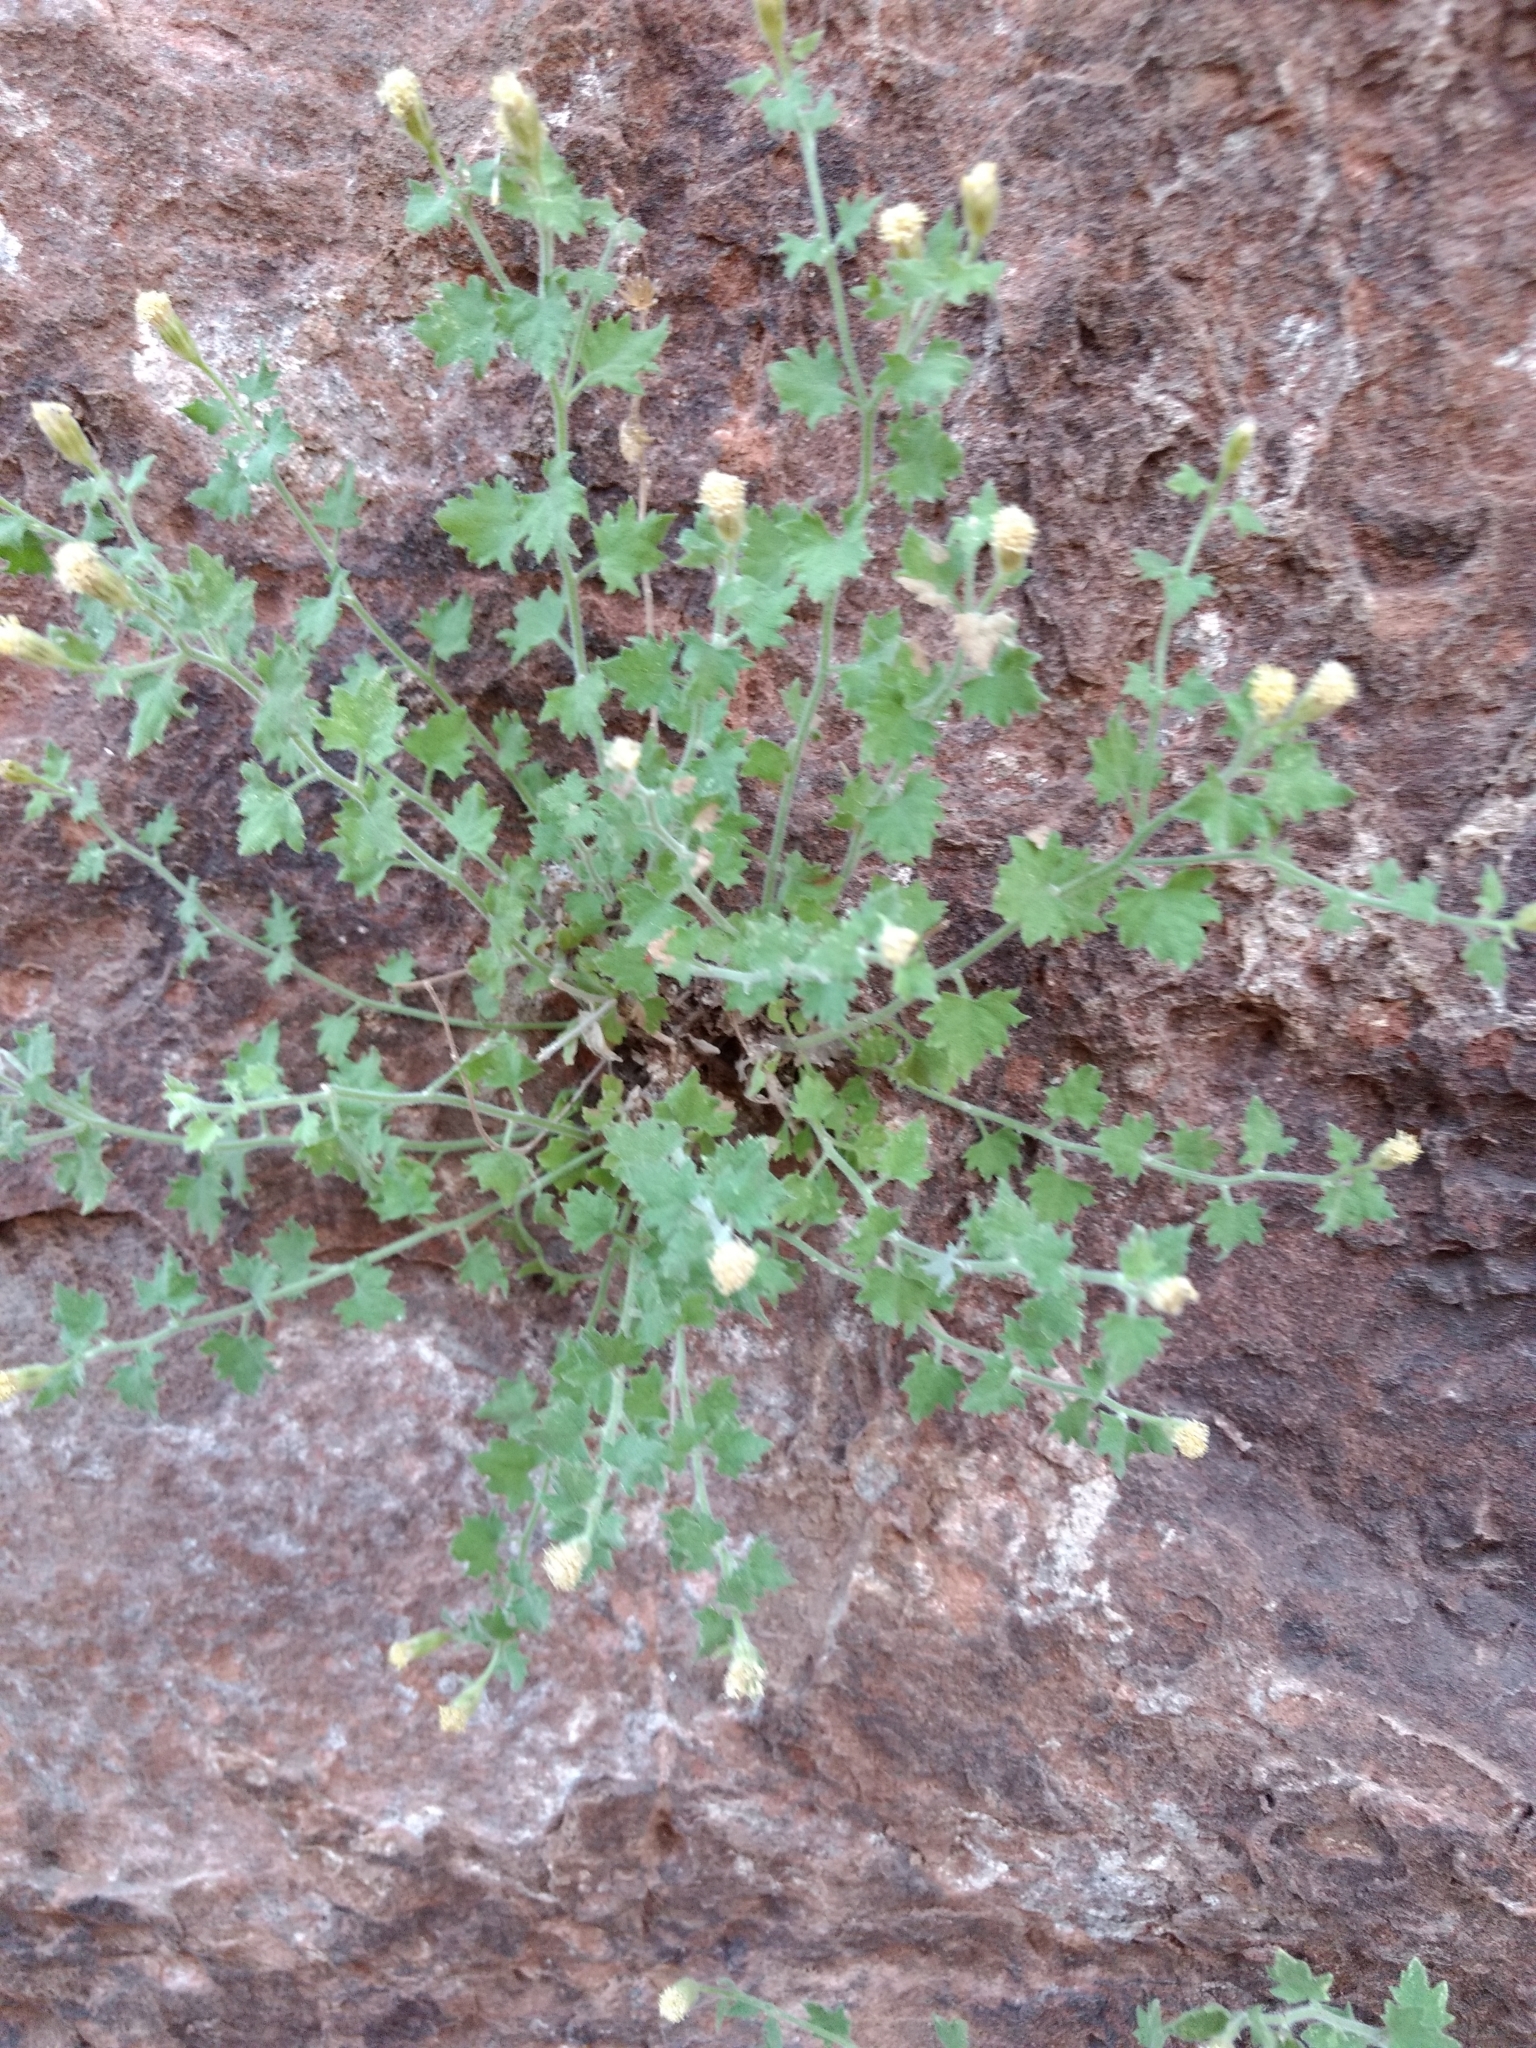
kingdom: Plantae
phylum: Tracheophyta
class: Magnoliopsida
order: Asterales
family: Asteraceae
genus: Laphamia
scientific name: Laphamia sanchezii
